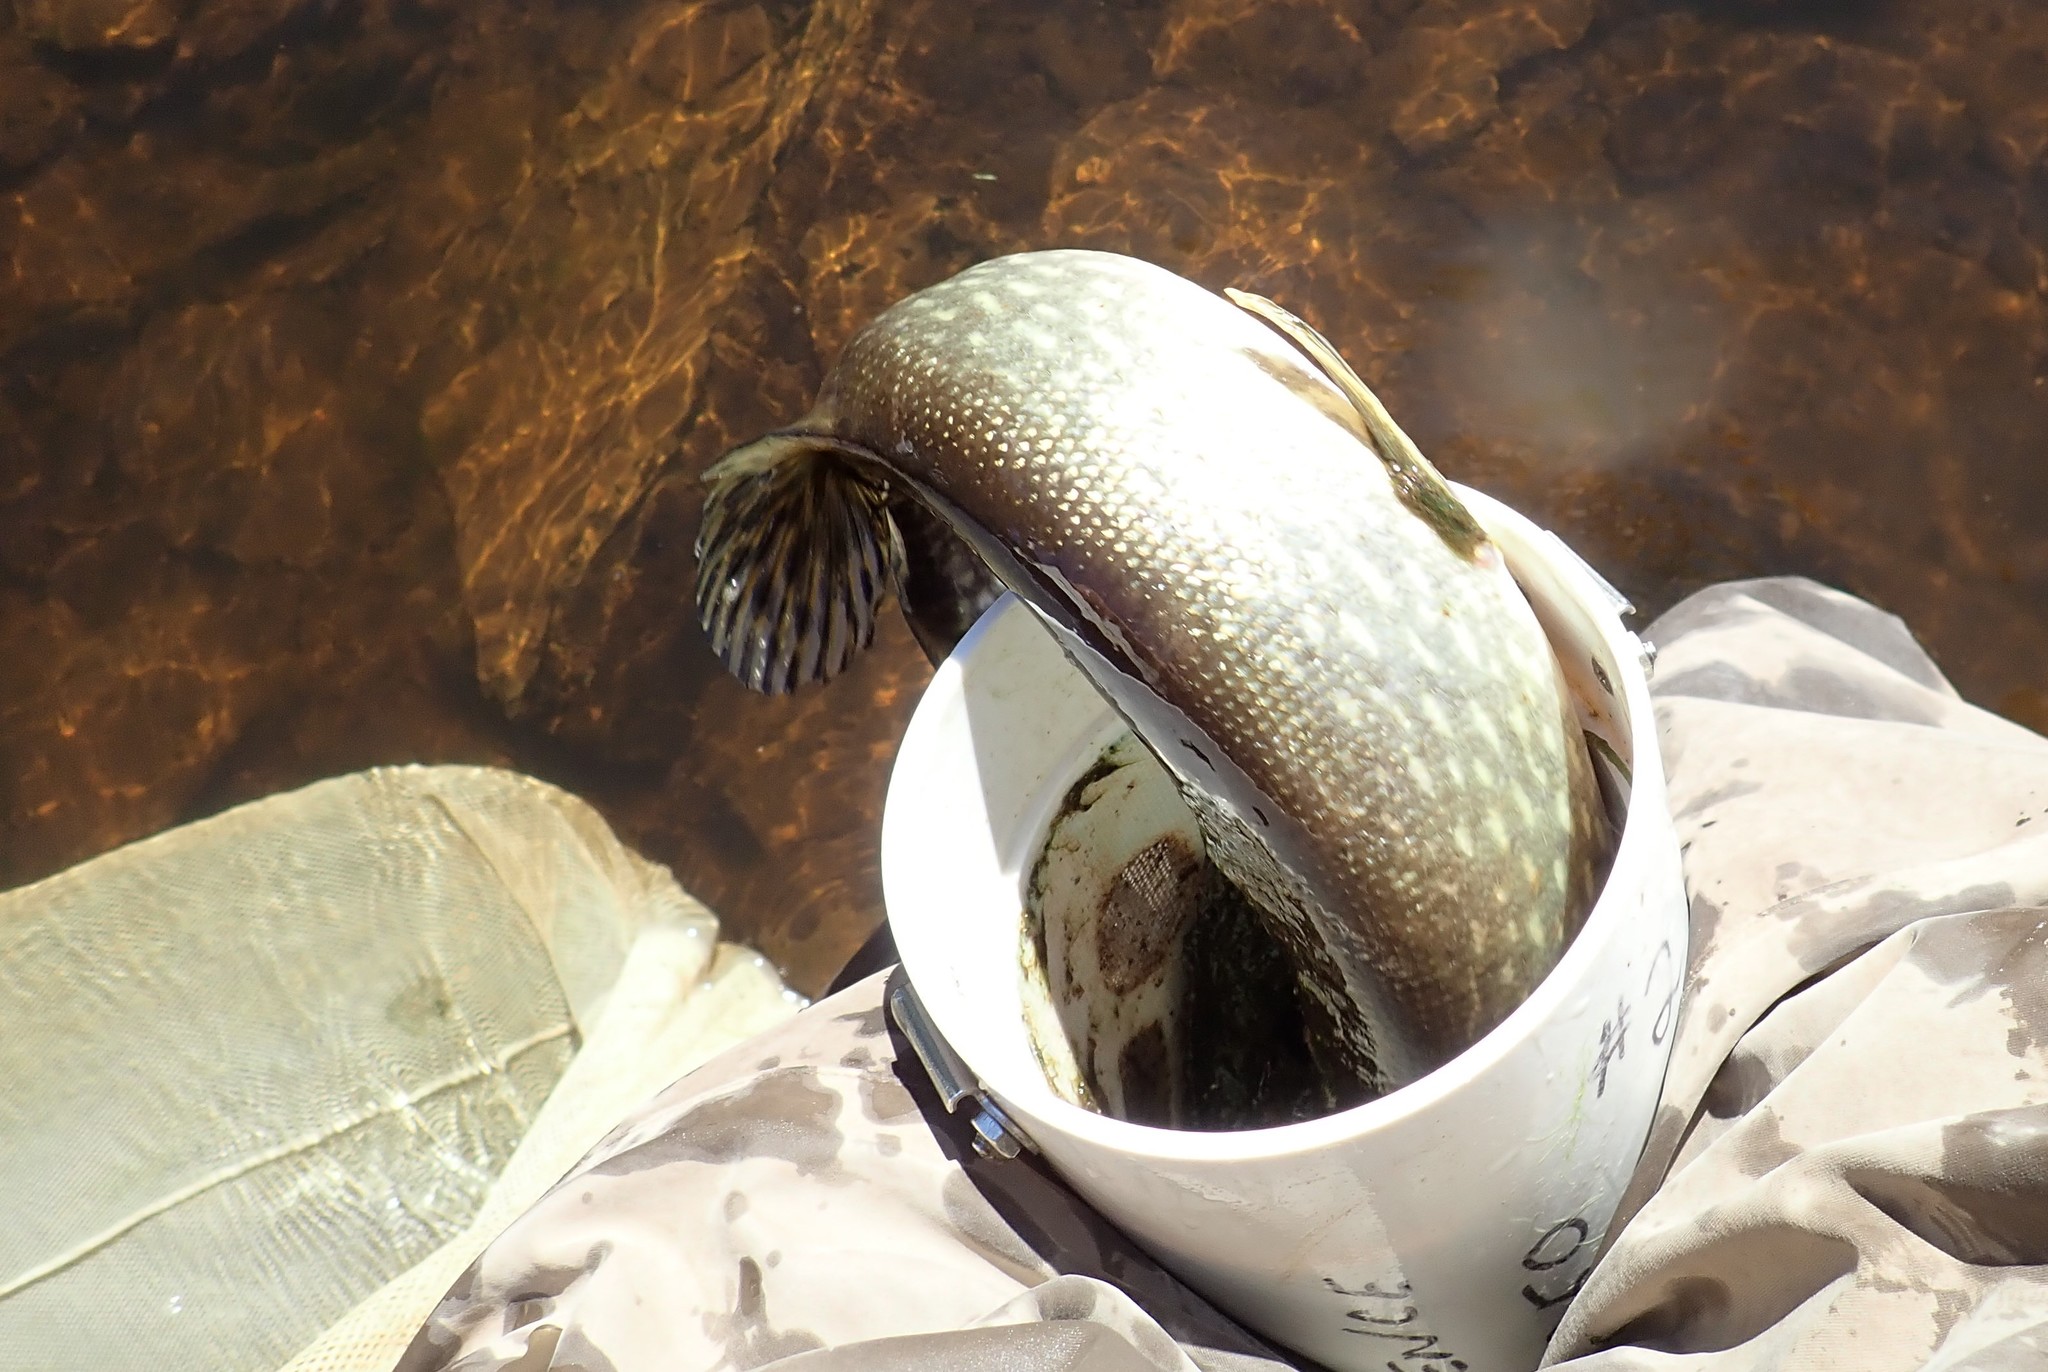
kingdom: Animalia
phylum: Chordata
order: Esociformes
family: Esocidae
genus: Esox
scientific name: Esox lucius
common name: Northern pike
